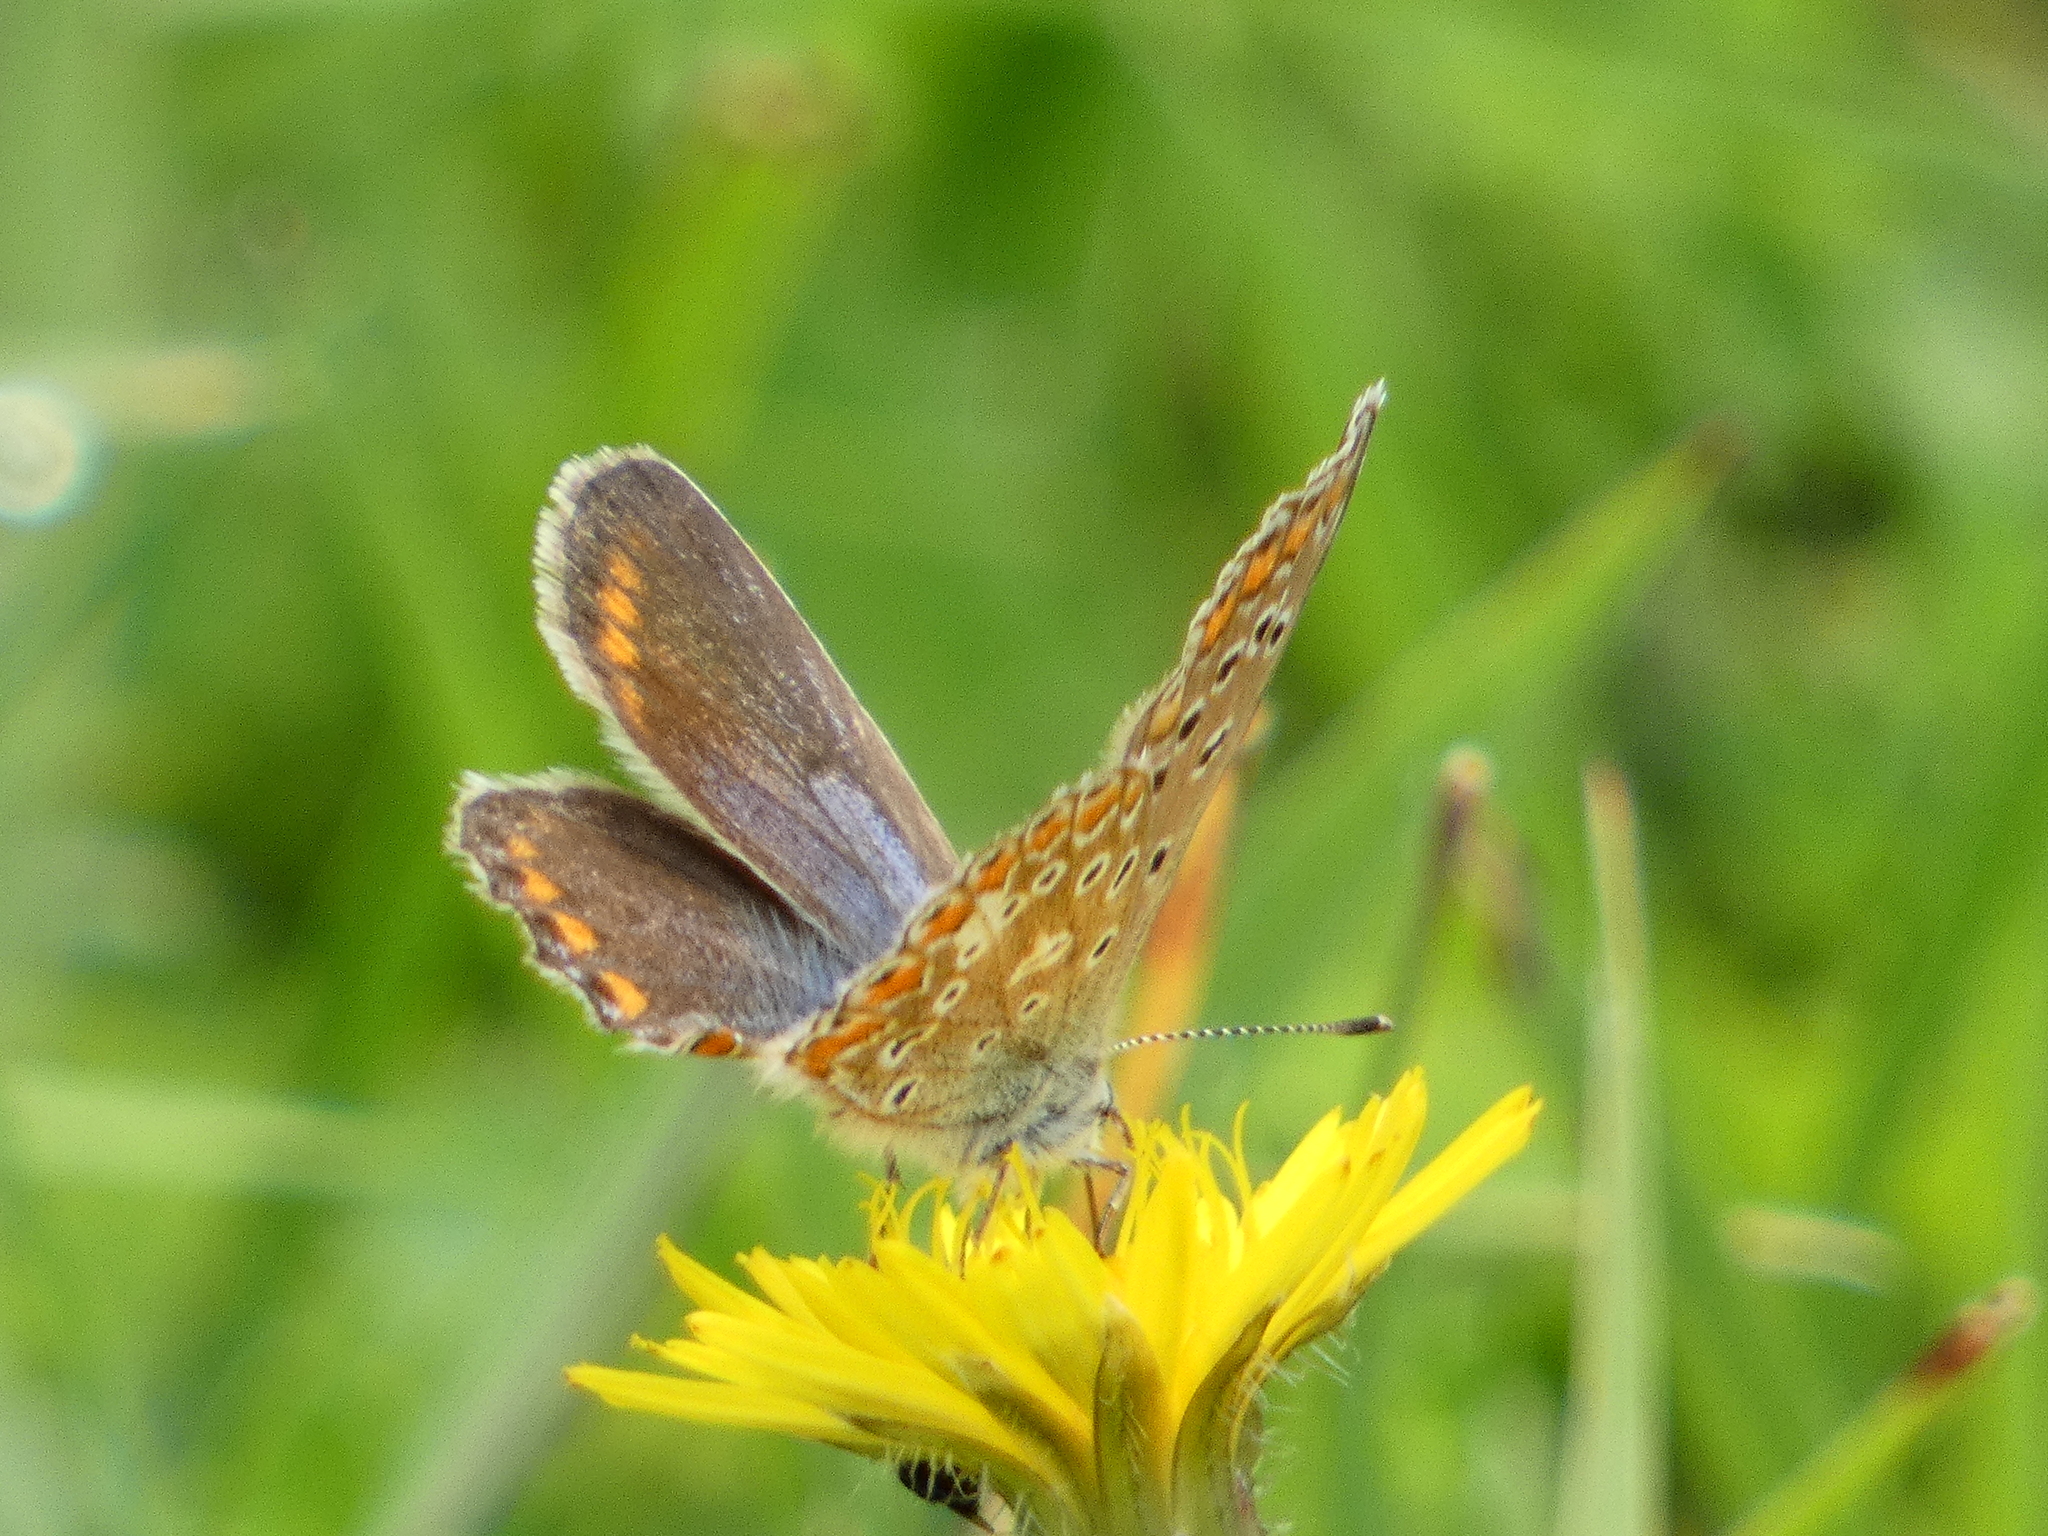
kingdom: Animalia
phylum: Arthropoda
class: Insecta
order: Lepidoptera
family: Lycaenidae
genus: Polyommatus
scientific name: Polyommatus icarus
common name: Common blue
